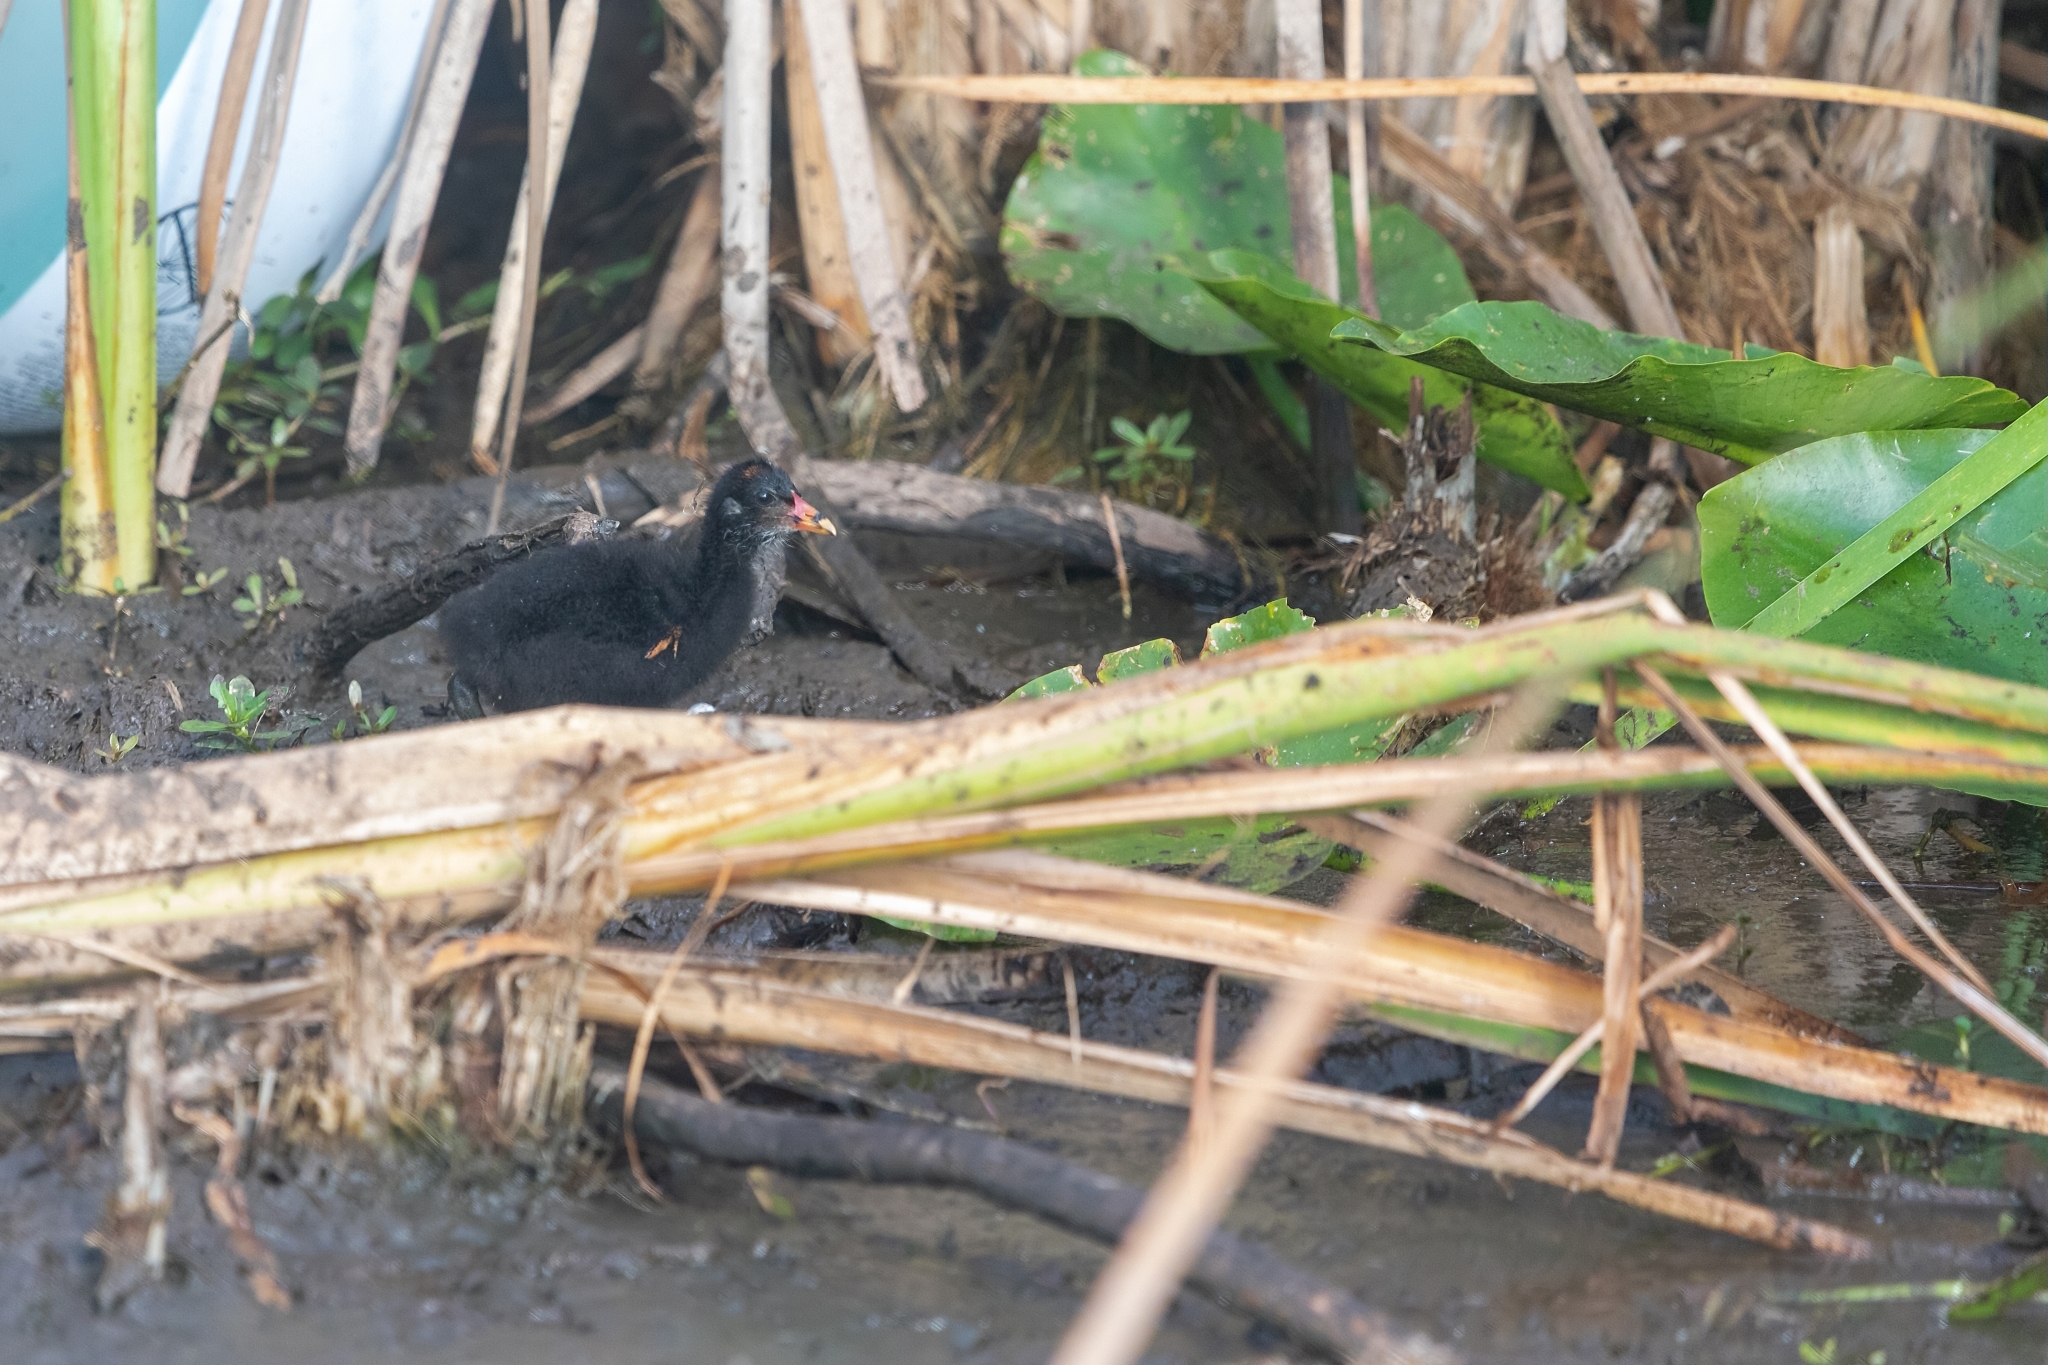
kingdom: Animalia
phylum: Chordata
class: Aves
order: Gruiformes
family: Rallidae
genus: Gallinula
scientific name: Gallinula chloropus
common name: Common moorhen
